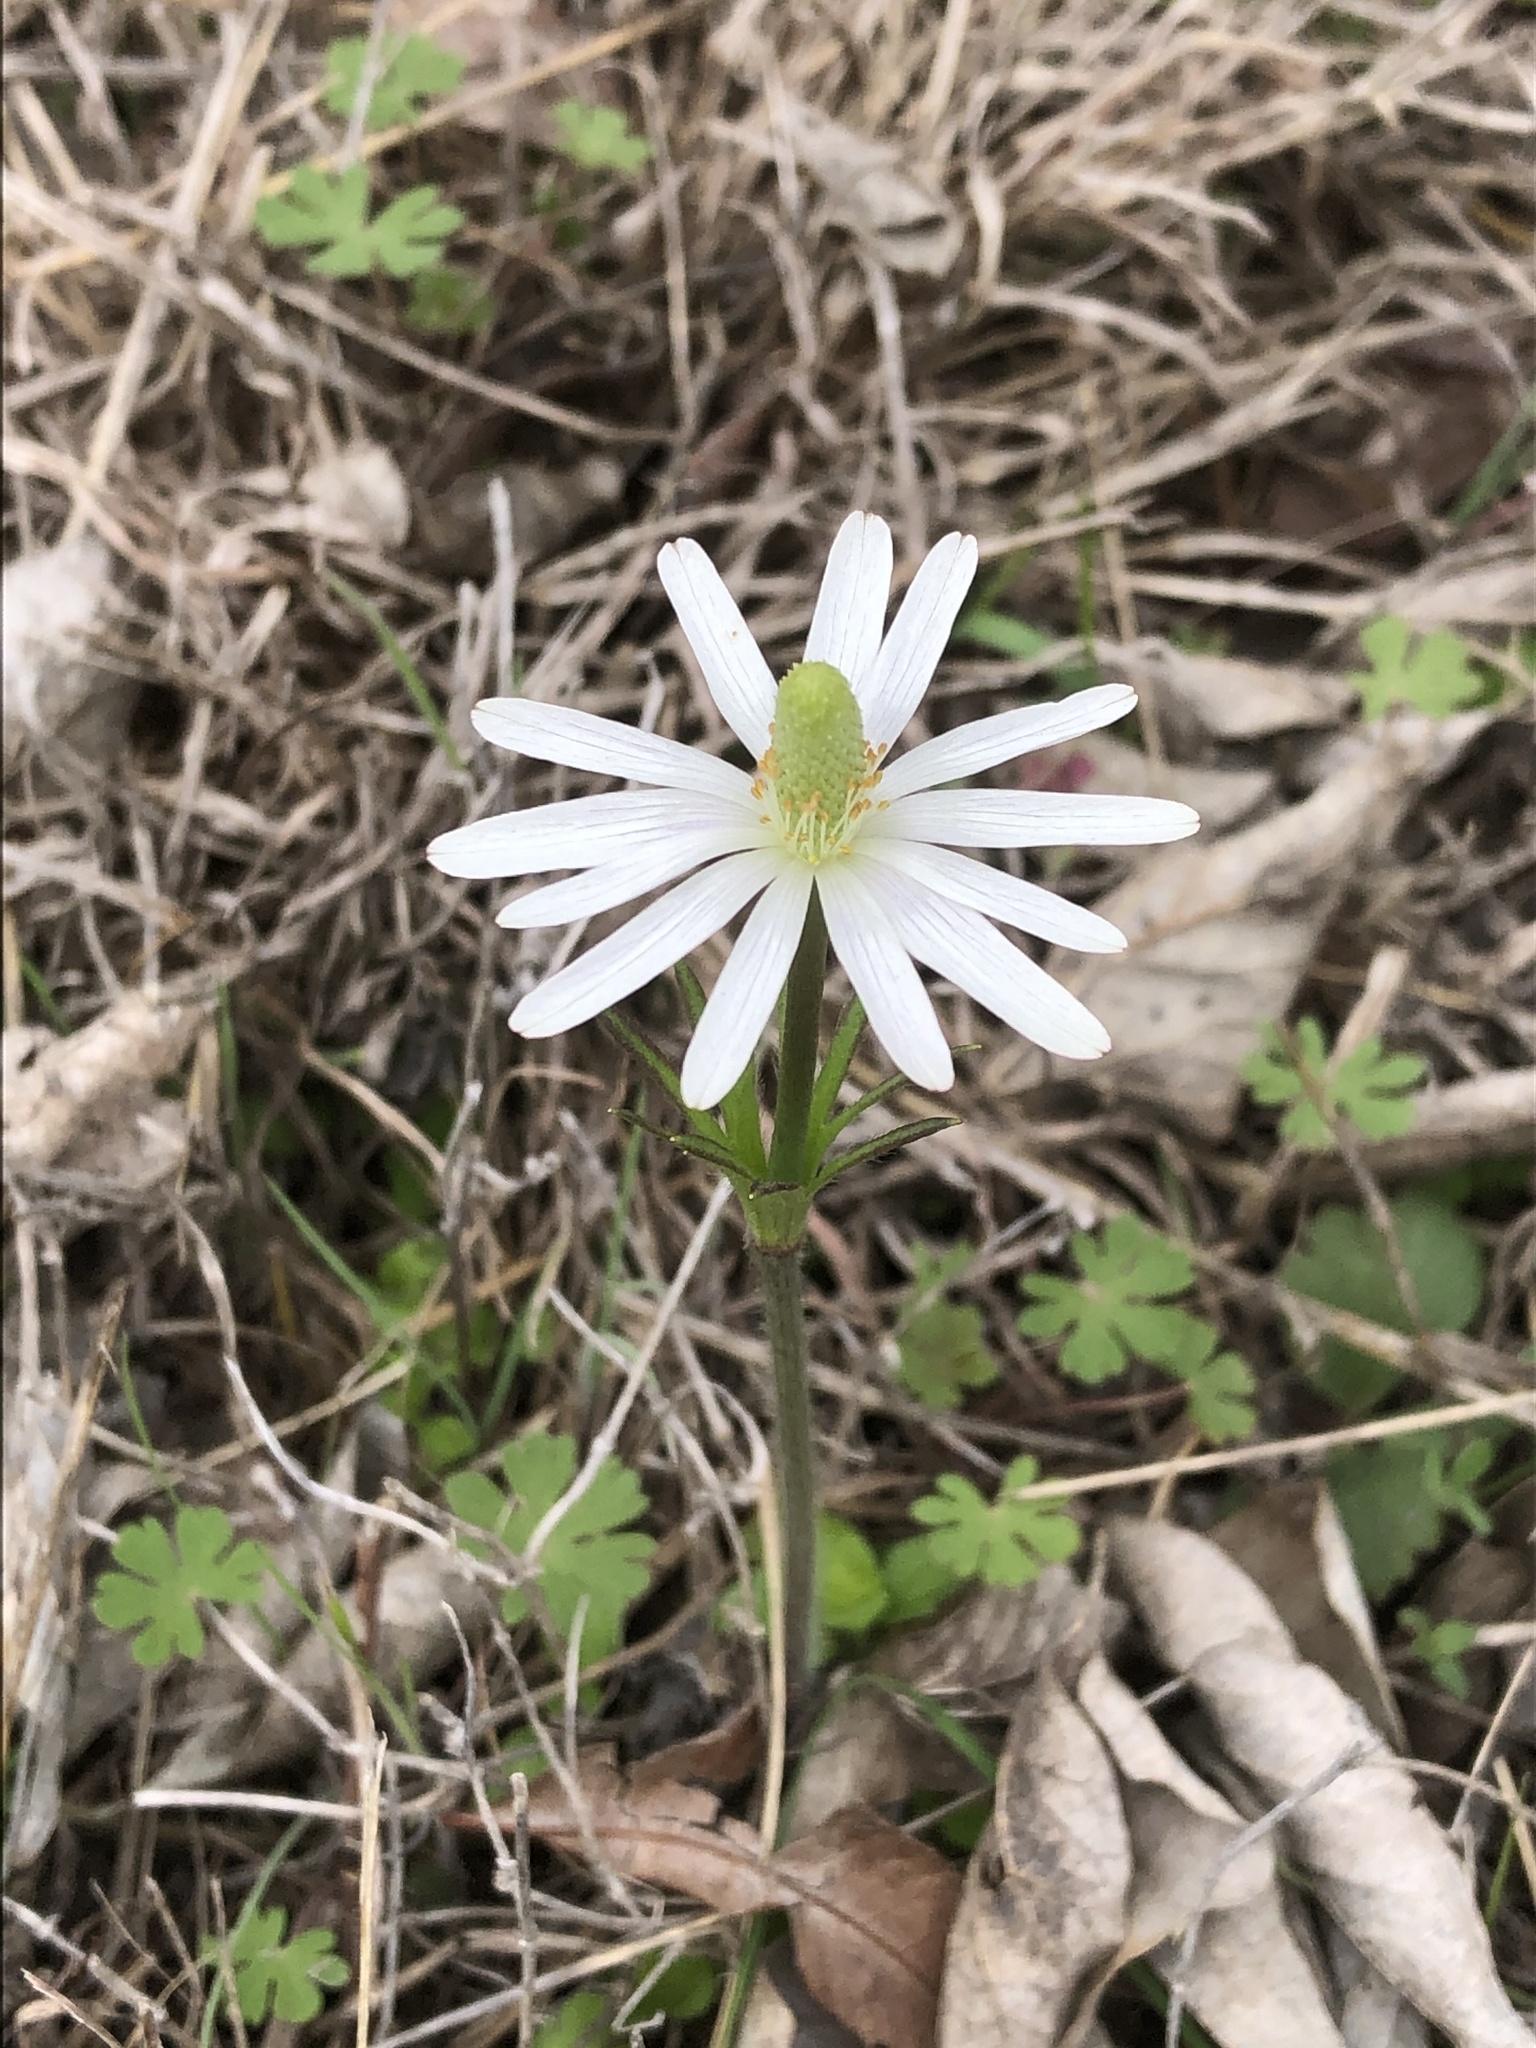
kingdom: Plantae
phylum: Tracheophyta
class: Magnoliopsida
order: Ranunculales
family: Ranunculaceae
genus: Anemone
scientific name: Anemone berlandieri
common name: Ten-petal anemone
